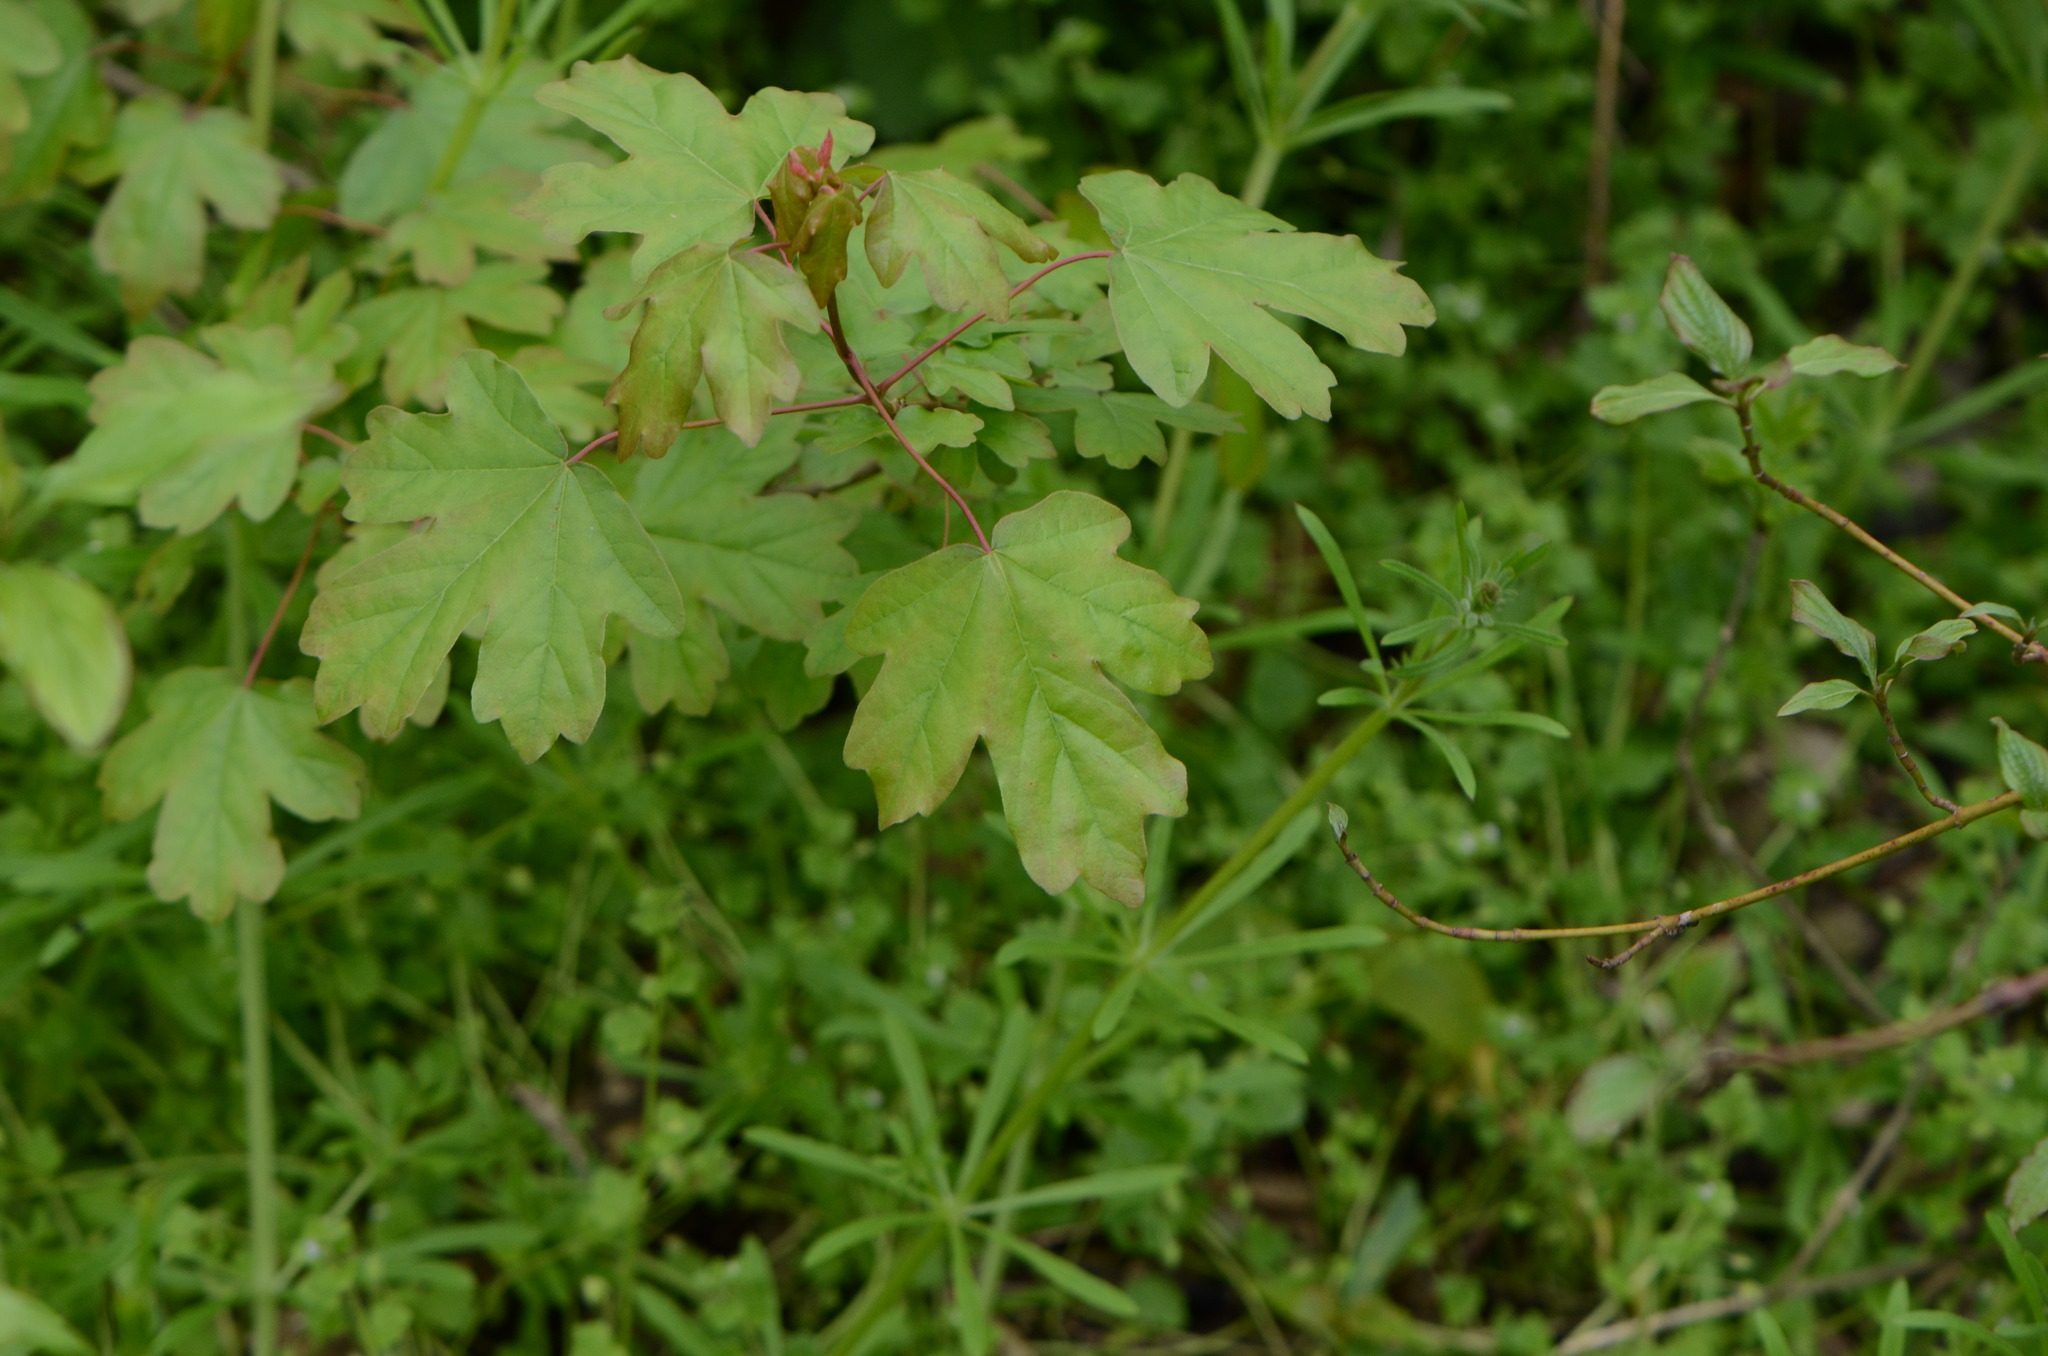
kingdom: Plantae
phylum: Tracheophyta
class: Magnoliopsida
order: Sapindales
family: Sapindaceae
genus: Acer
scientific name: Acer campestre
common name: Field maple
